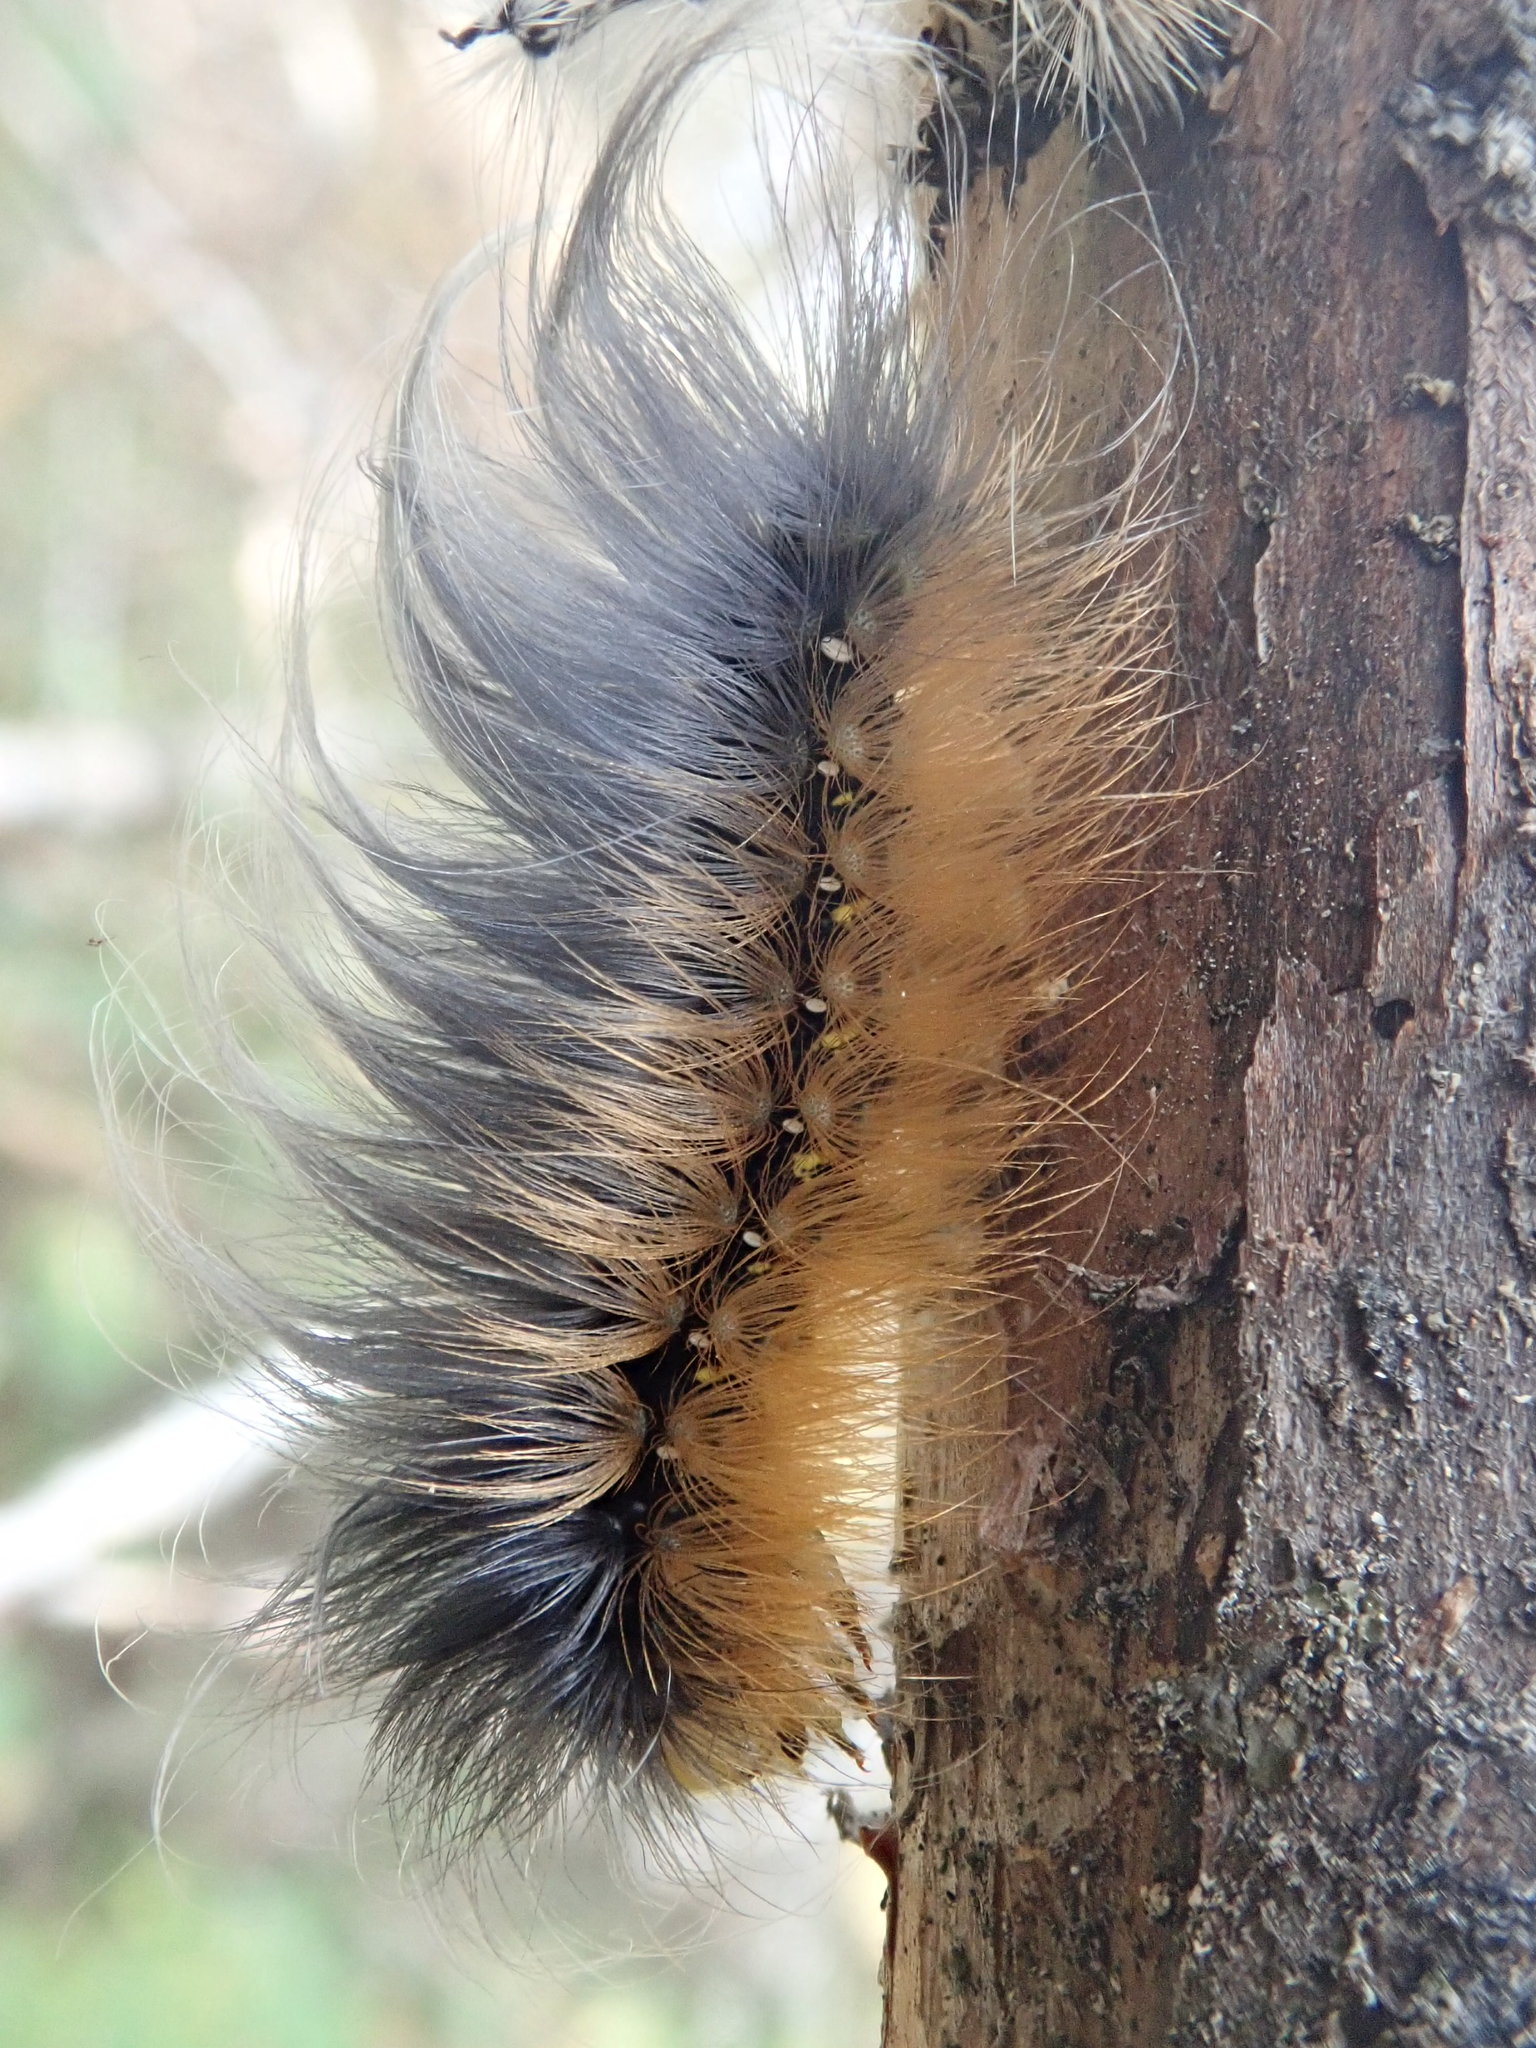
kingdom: Animalia
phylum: Arthropoda
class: Insecta
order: Lepidoptera
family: Erebidae
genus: Spilosoma
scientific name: Spilosoma virginica
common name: Virginia tiger moth
